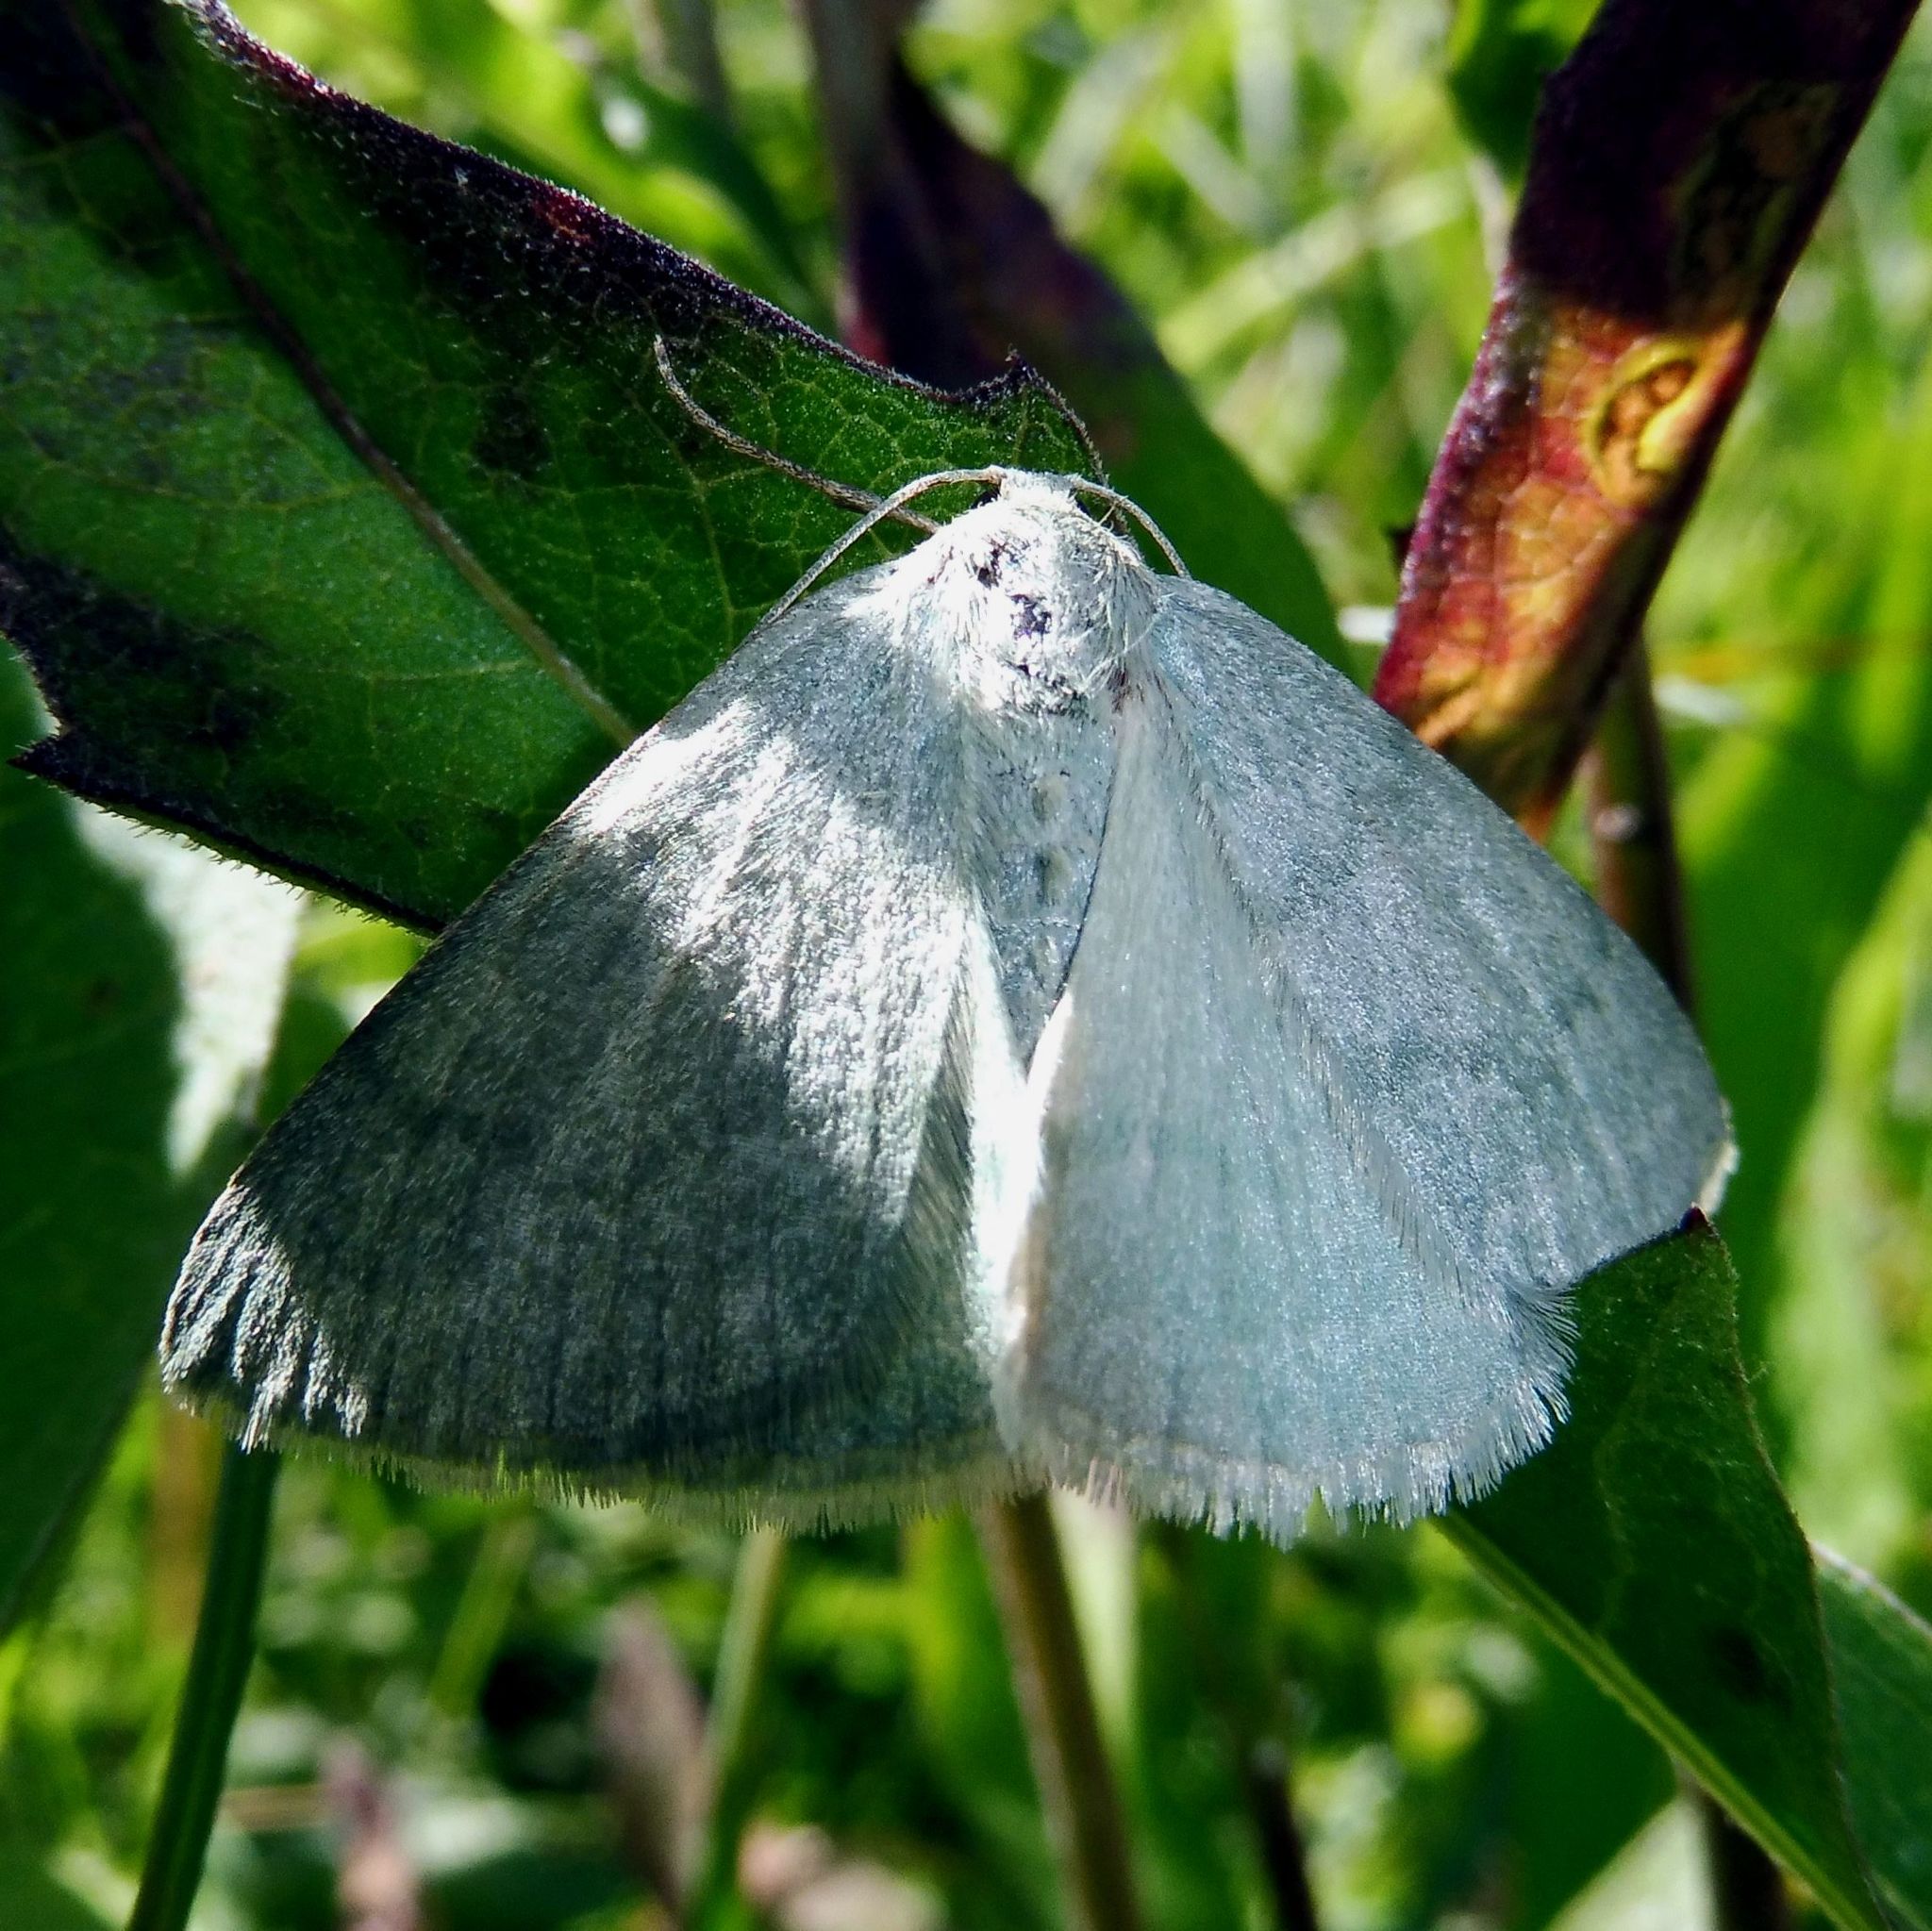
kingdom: Animalia
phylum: Arthropoda
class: Insecta
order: Lepidoptera
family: Geometridae
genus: Pseudoterpna
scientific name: Pseudoterpna pruinata
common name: Grass emerald
